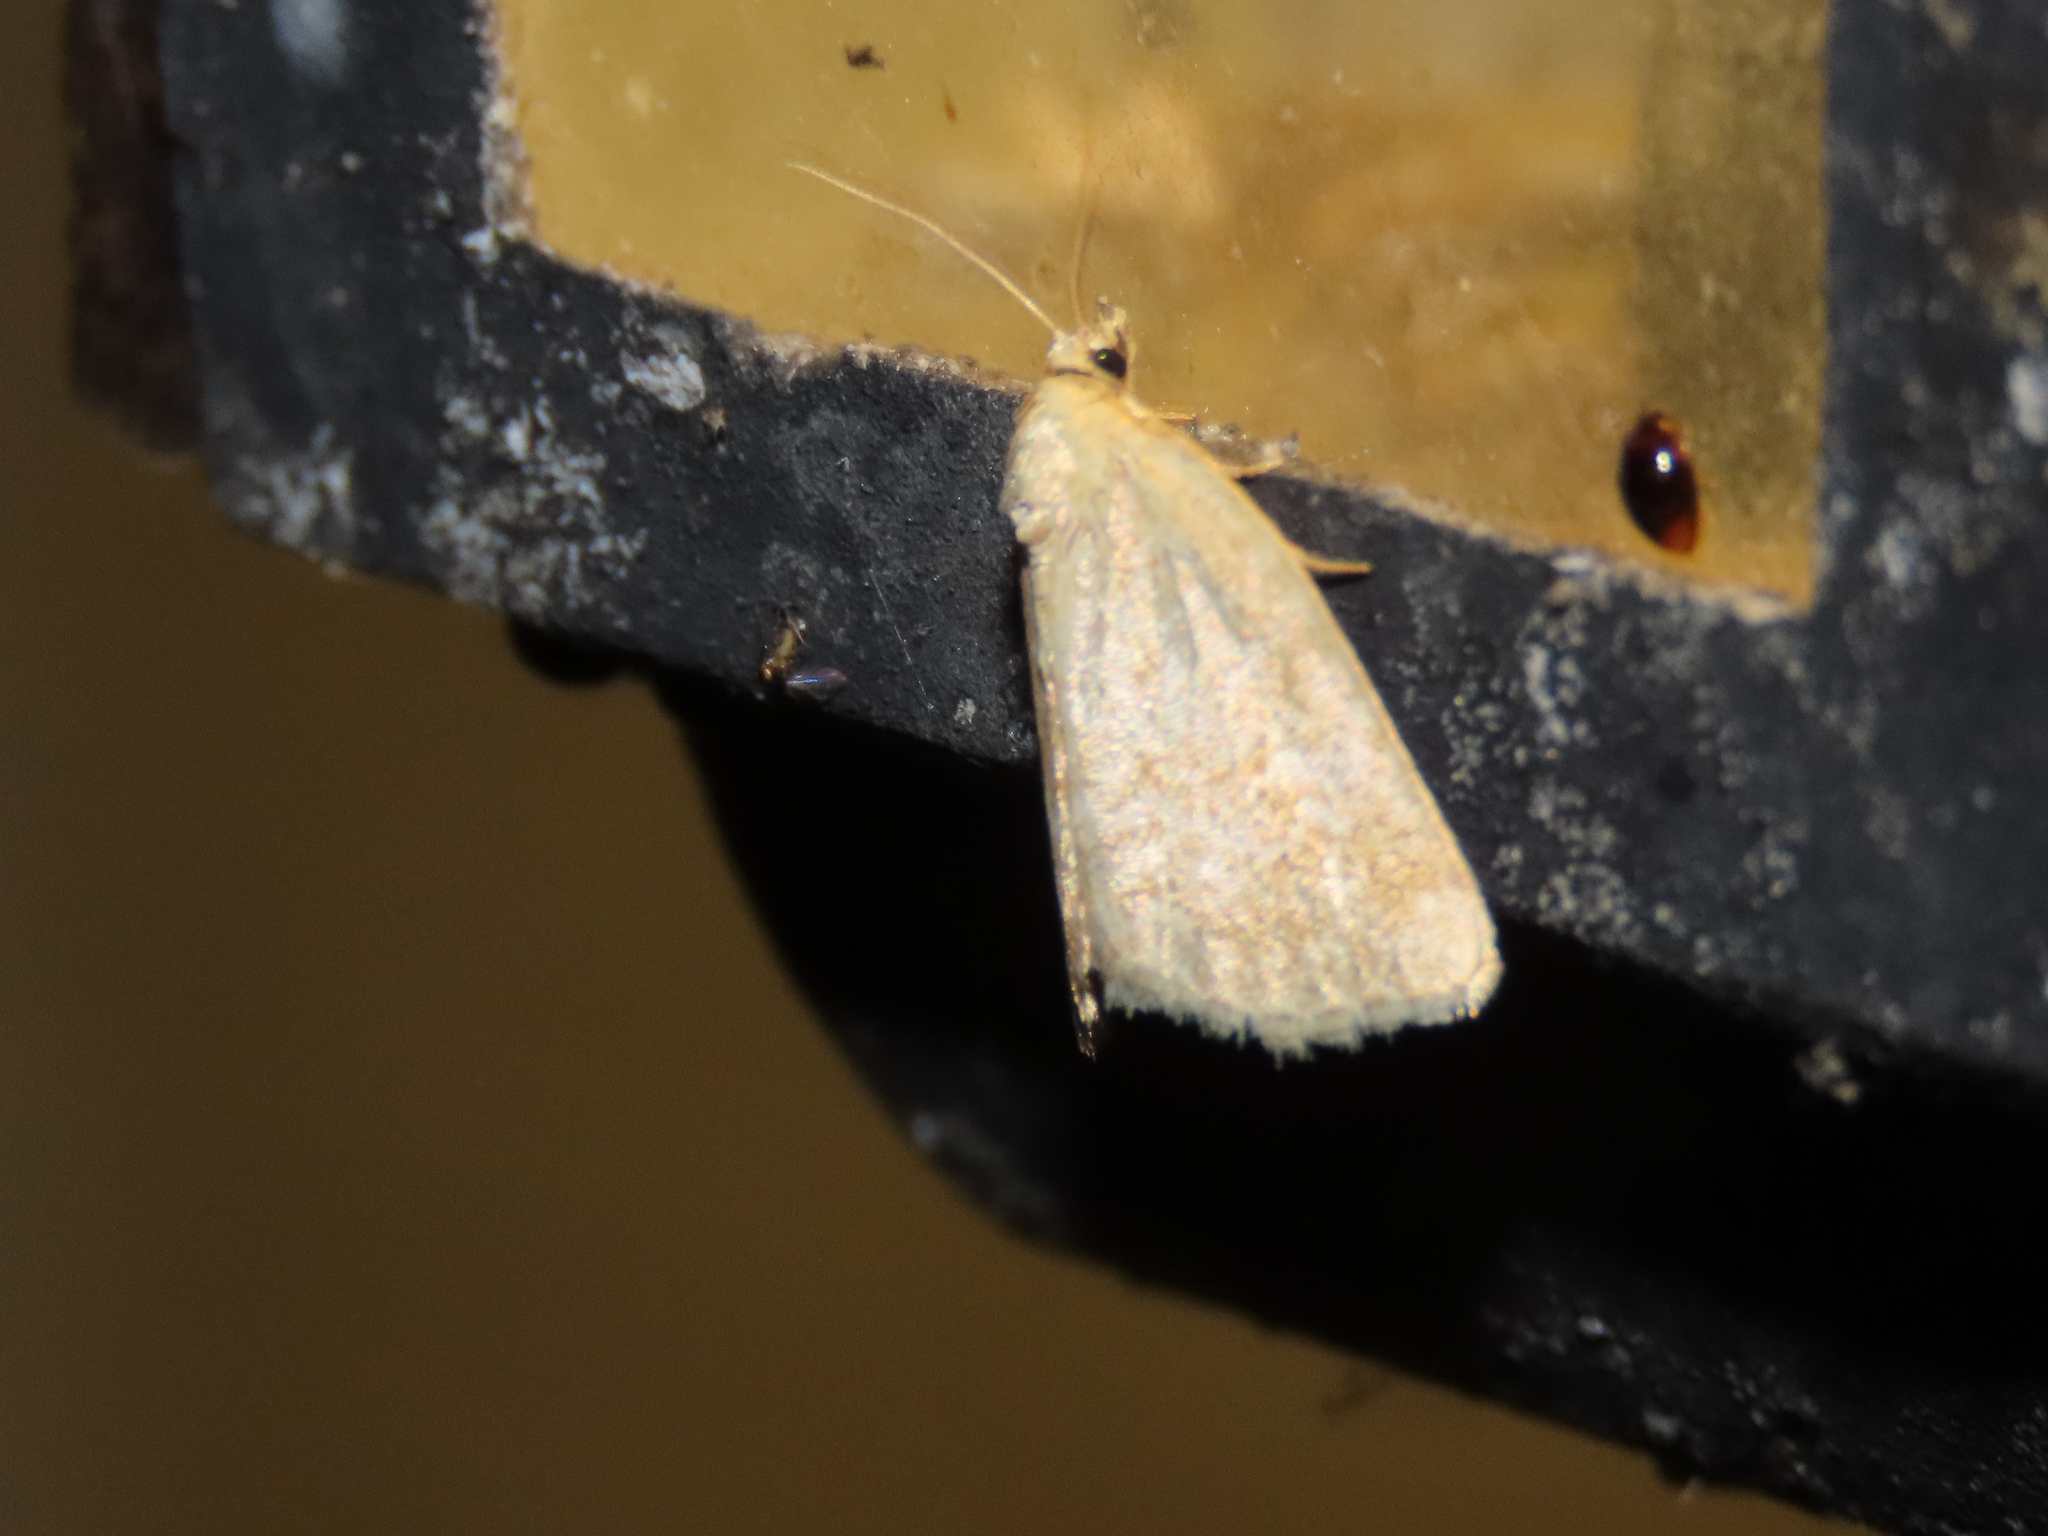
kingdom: Animalia
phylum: Arthropoda
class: Insecta
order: Lepidoptera
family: Noctuidae
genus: Protodeltote
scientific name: Protodeltote albidula
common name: Pale glyph
